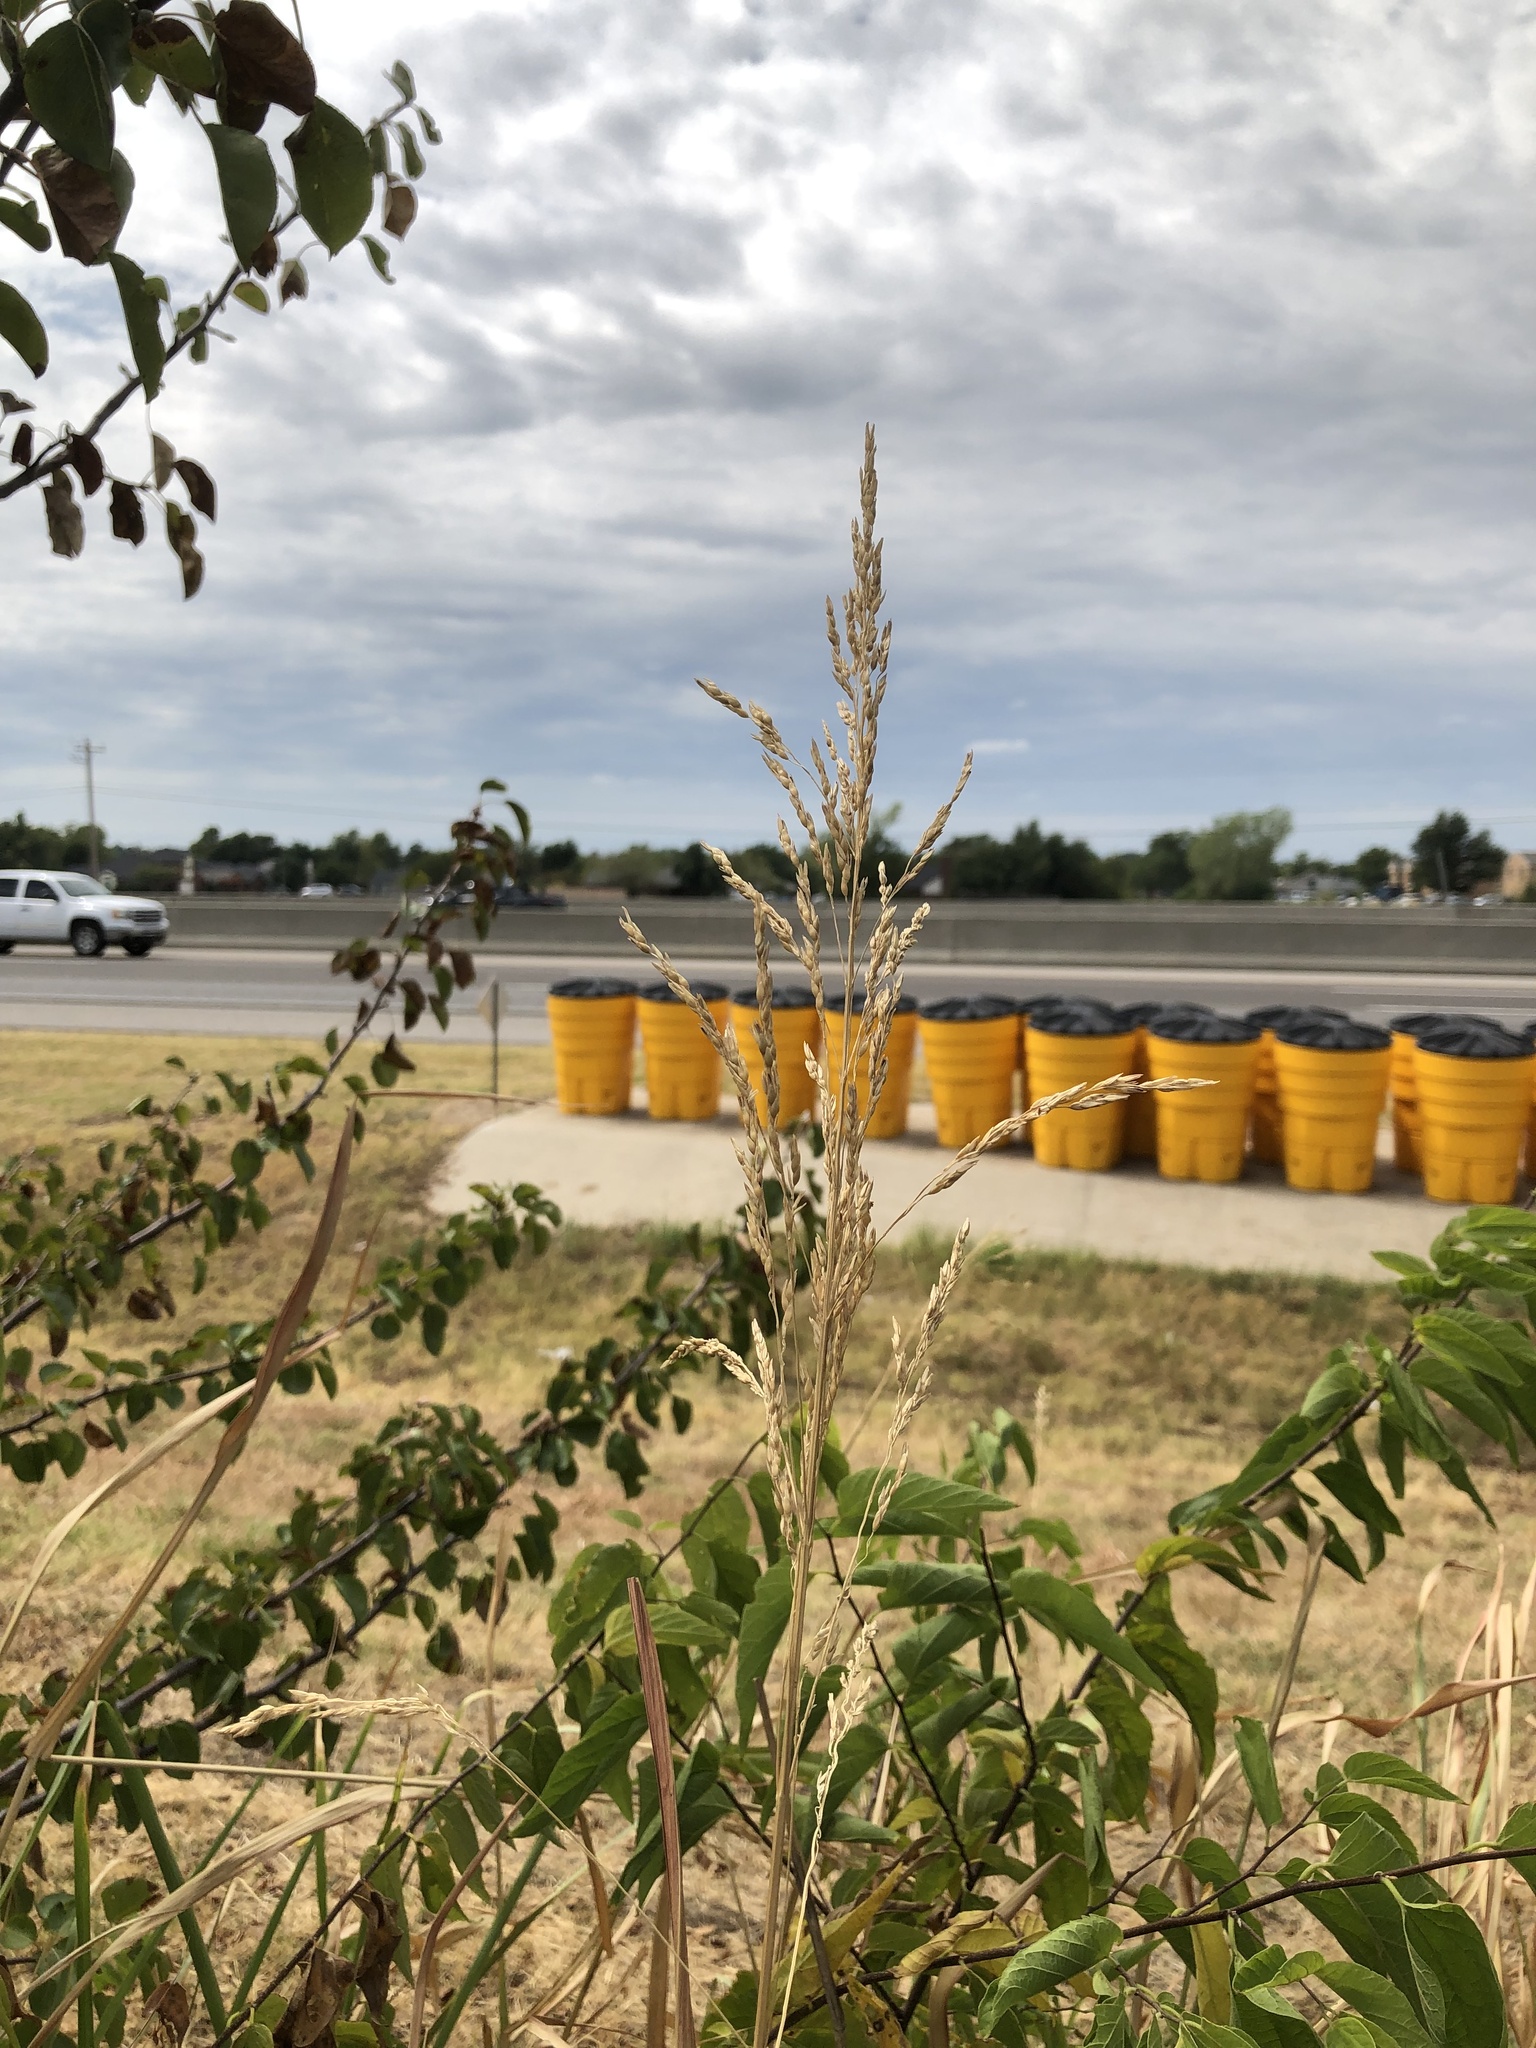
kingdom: Plantae
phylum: Tracheophyta
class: Liliopsida
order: Poales
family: Poaceae
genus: Sorghum
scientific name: Sorghum halepense
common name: Johnson-grass
